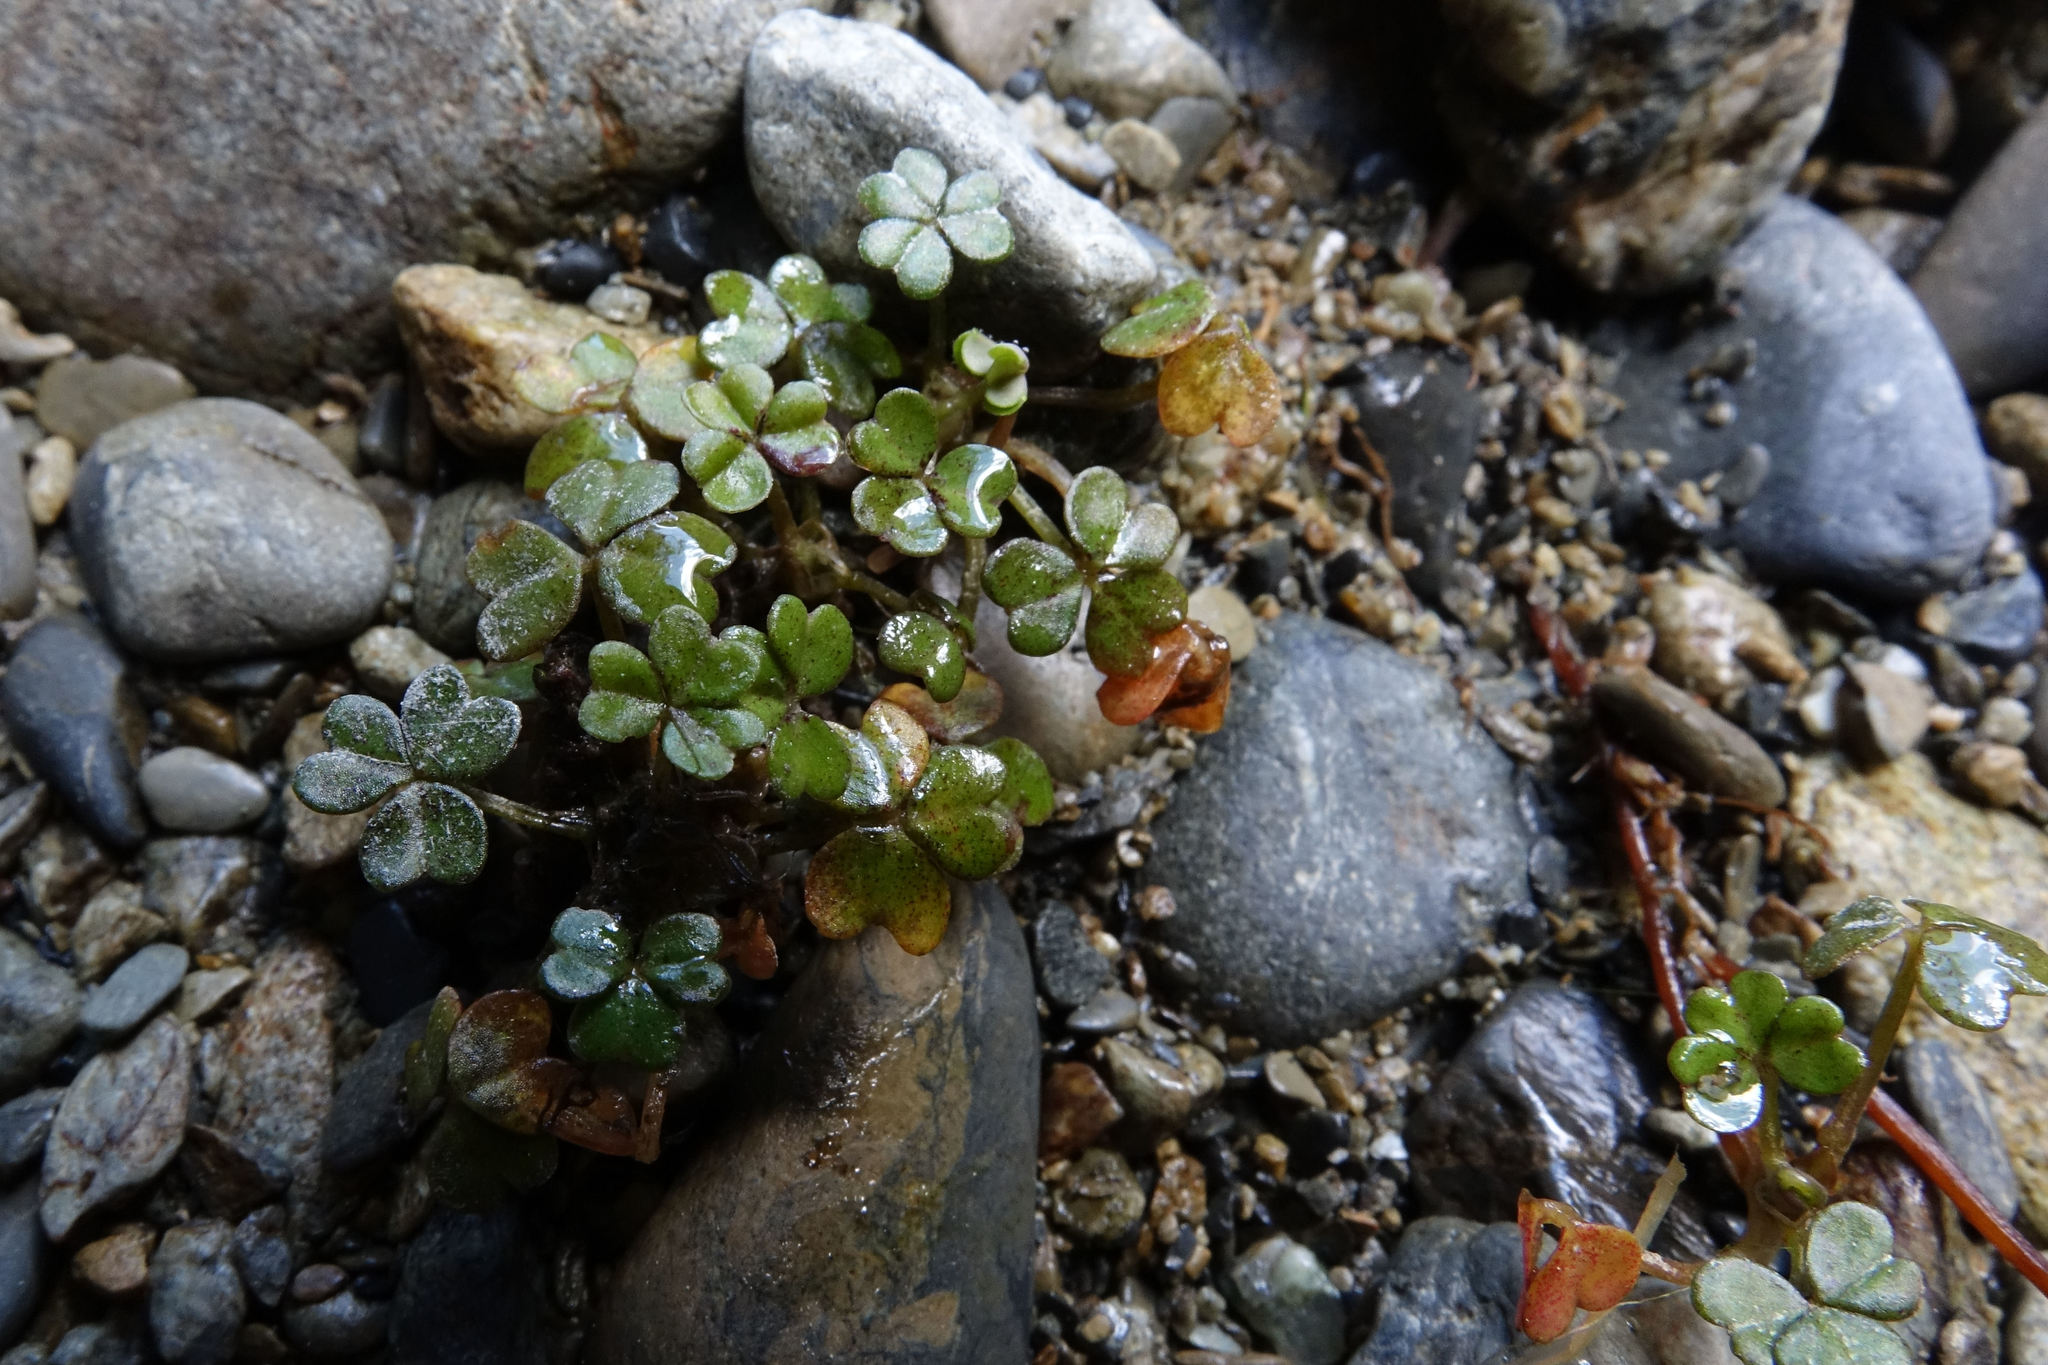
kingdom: Plantae
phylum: Tracheophyta
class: Magnoliopsida
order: Oxalidales
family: Oxalidaceae
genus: Oxalis
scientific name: Oxalis magellanica
